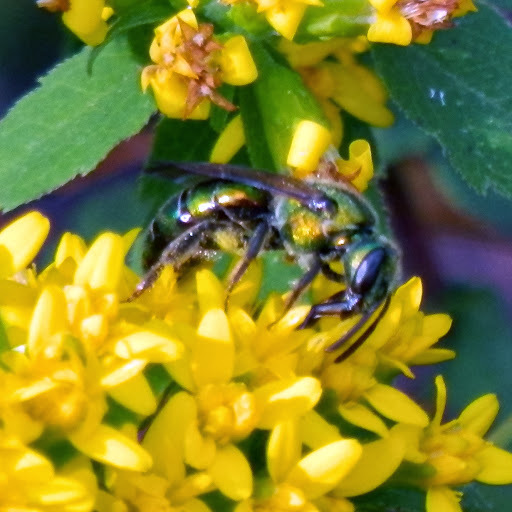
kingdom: Animalia
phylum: Arthropoda
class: Insecta
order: Hymenoptera
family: Halictidae
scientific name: Halictidae
